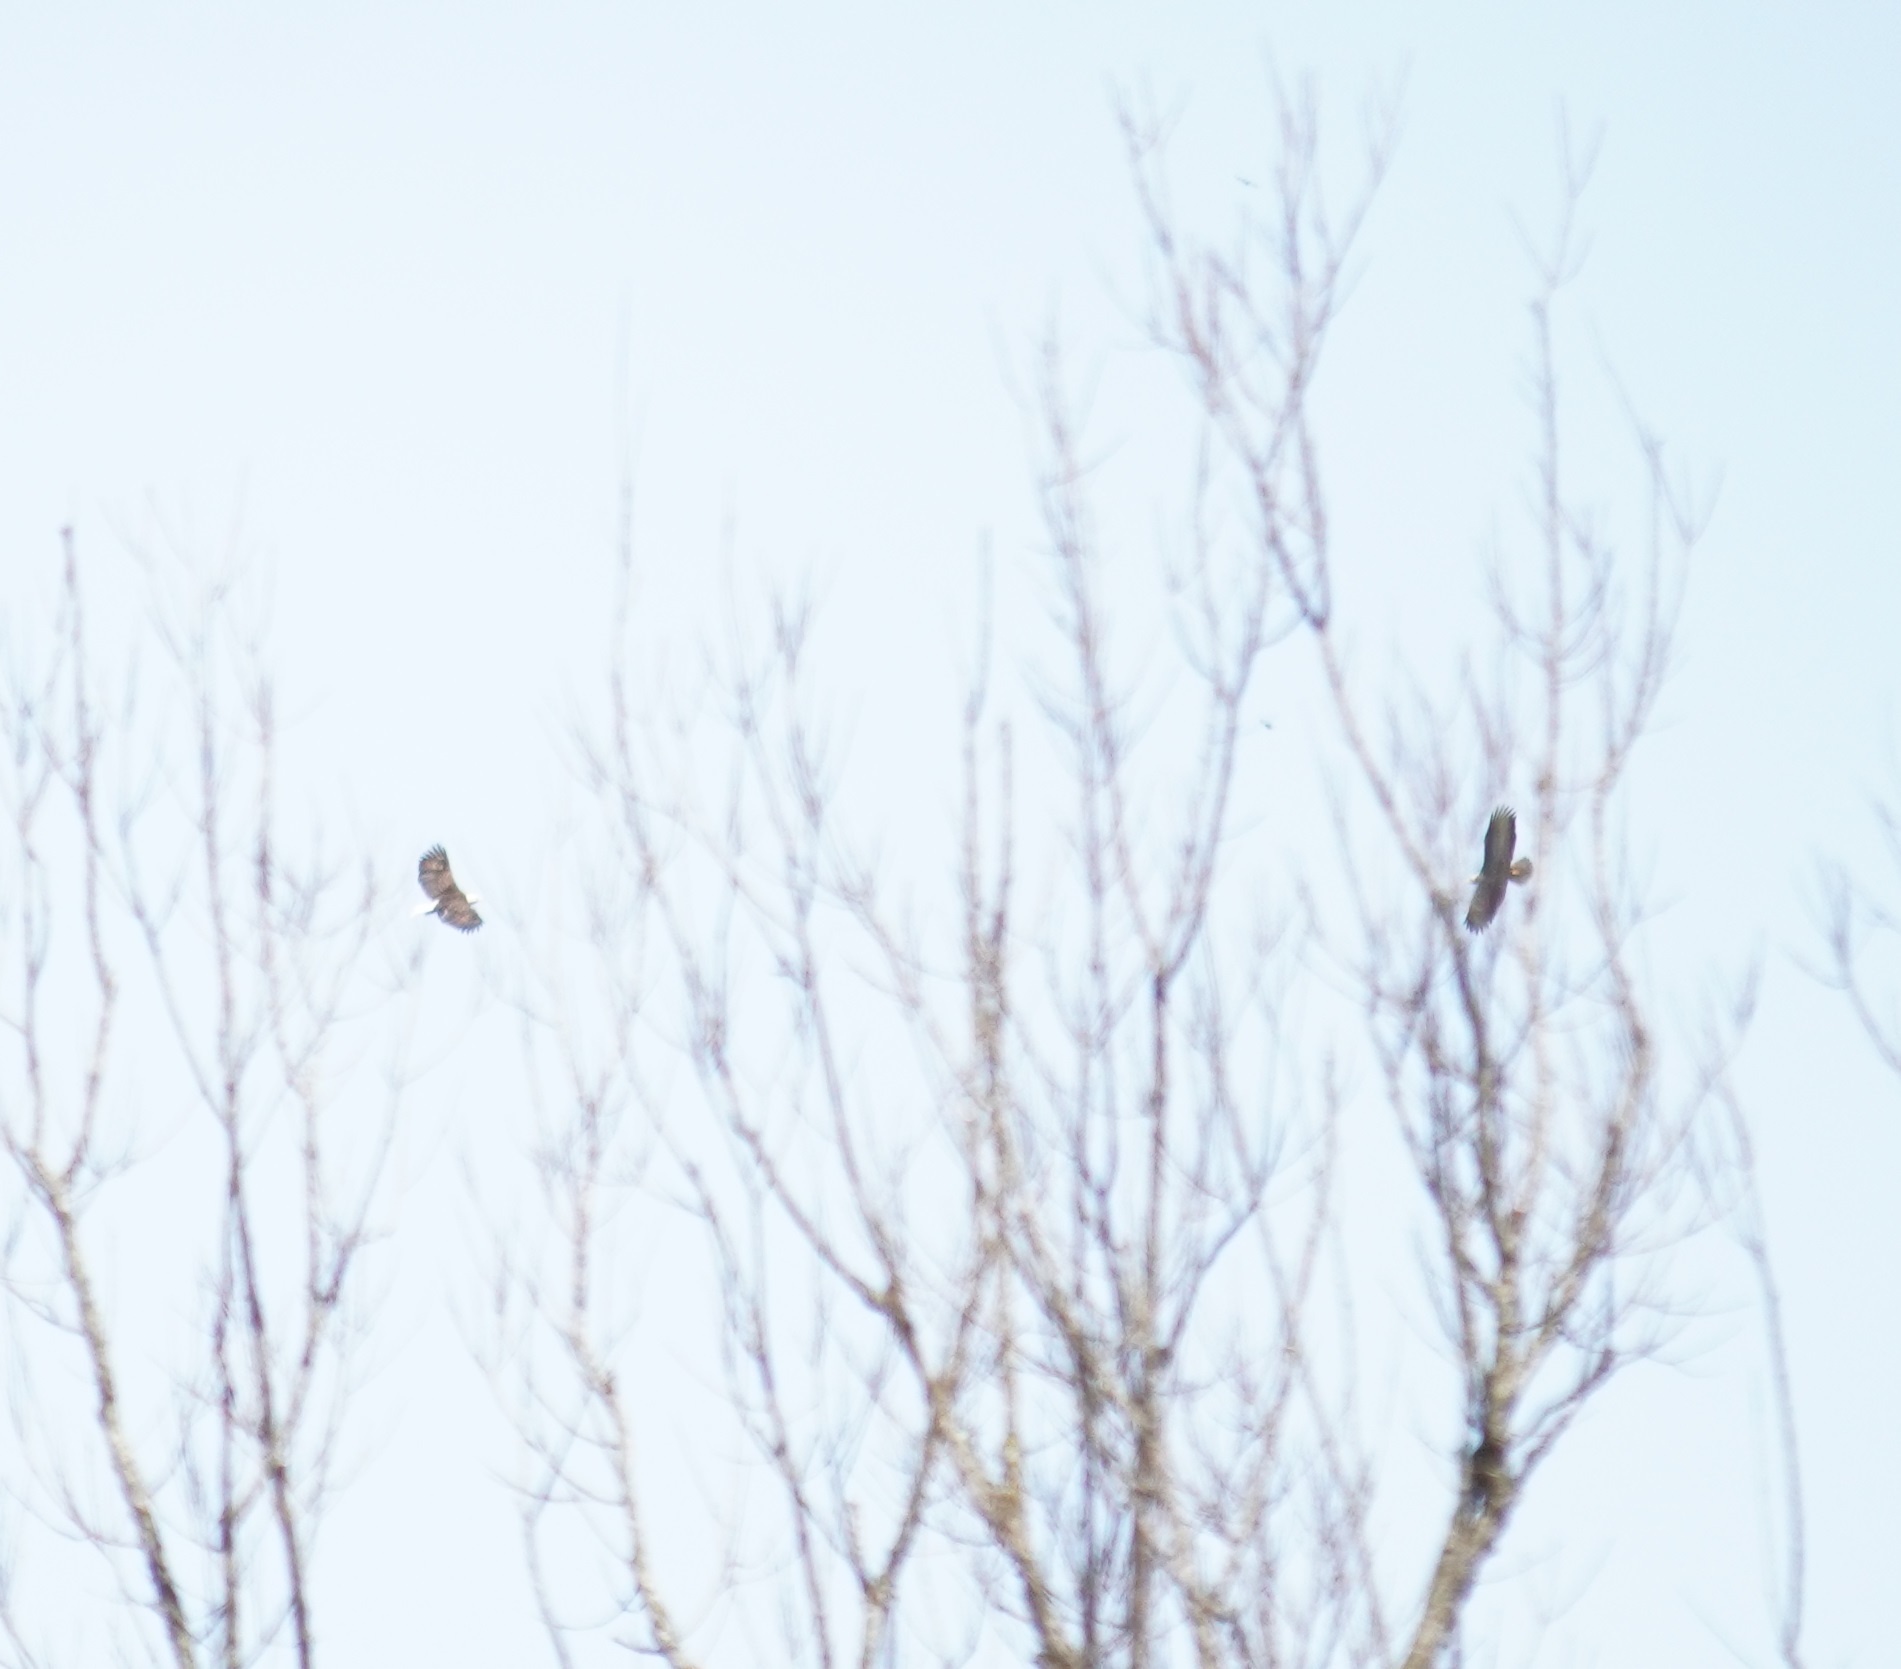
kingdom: Animalia
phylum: Chordata
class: Aves
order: Accipitriformes
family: Accipitridae
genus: Haliaeetus
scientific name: Haliaeetus leucocephalus
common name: Bald eagle
